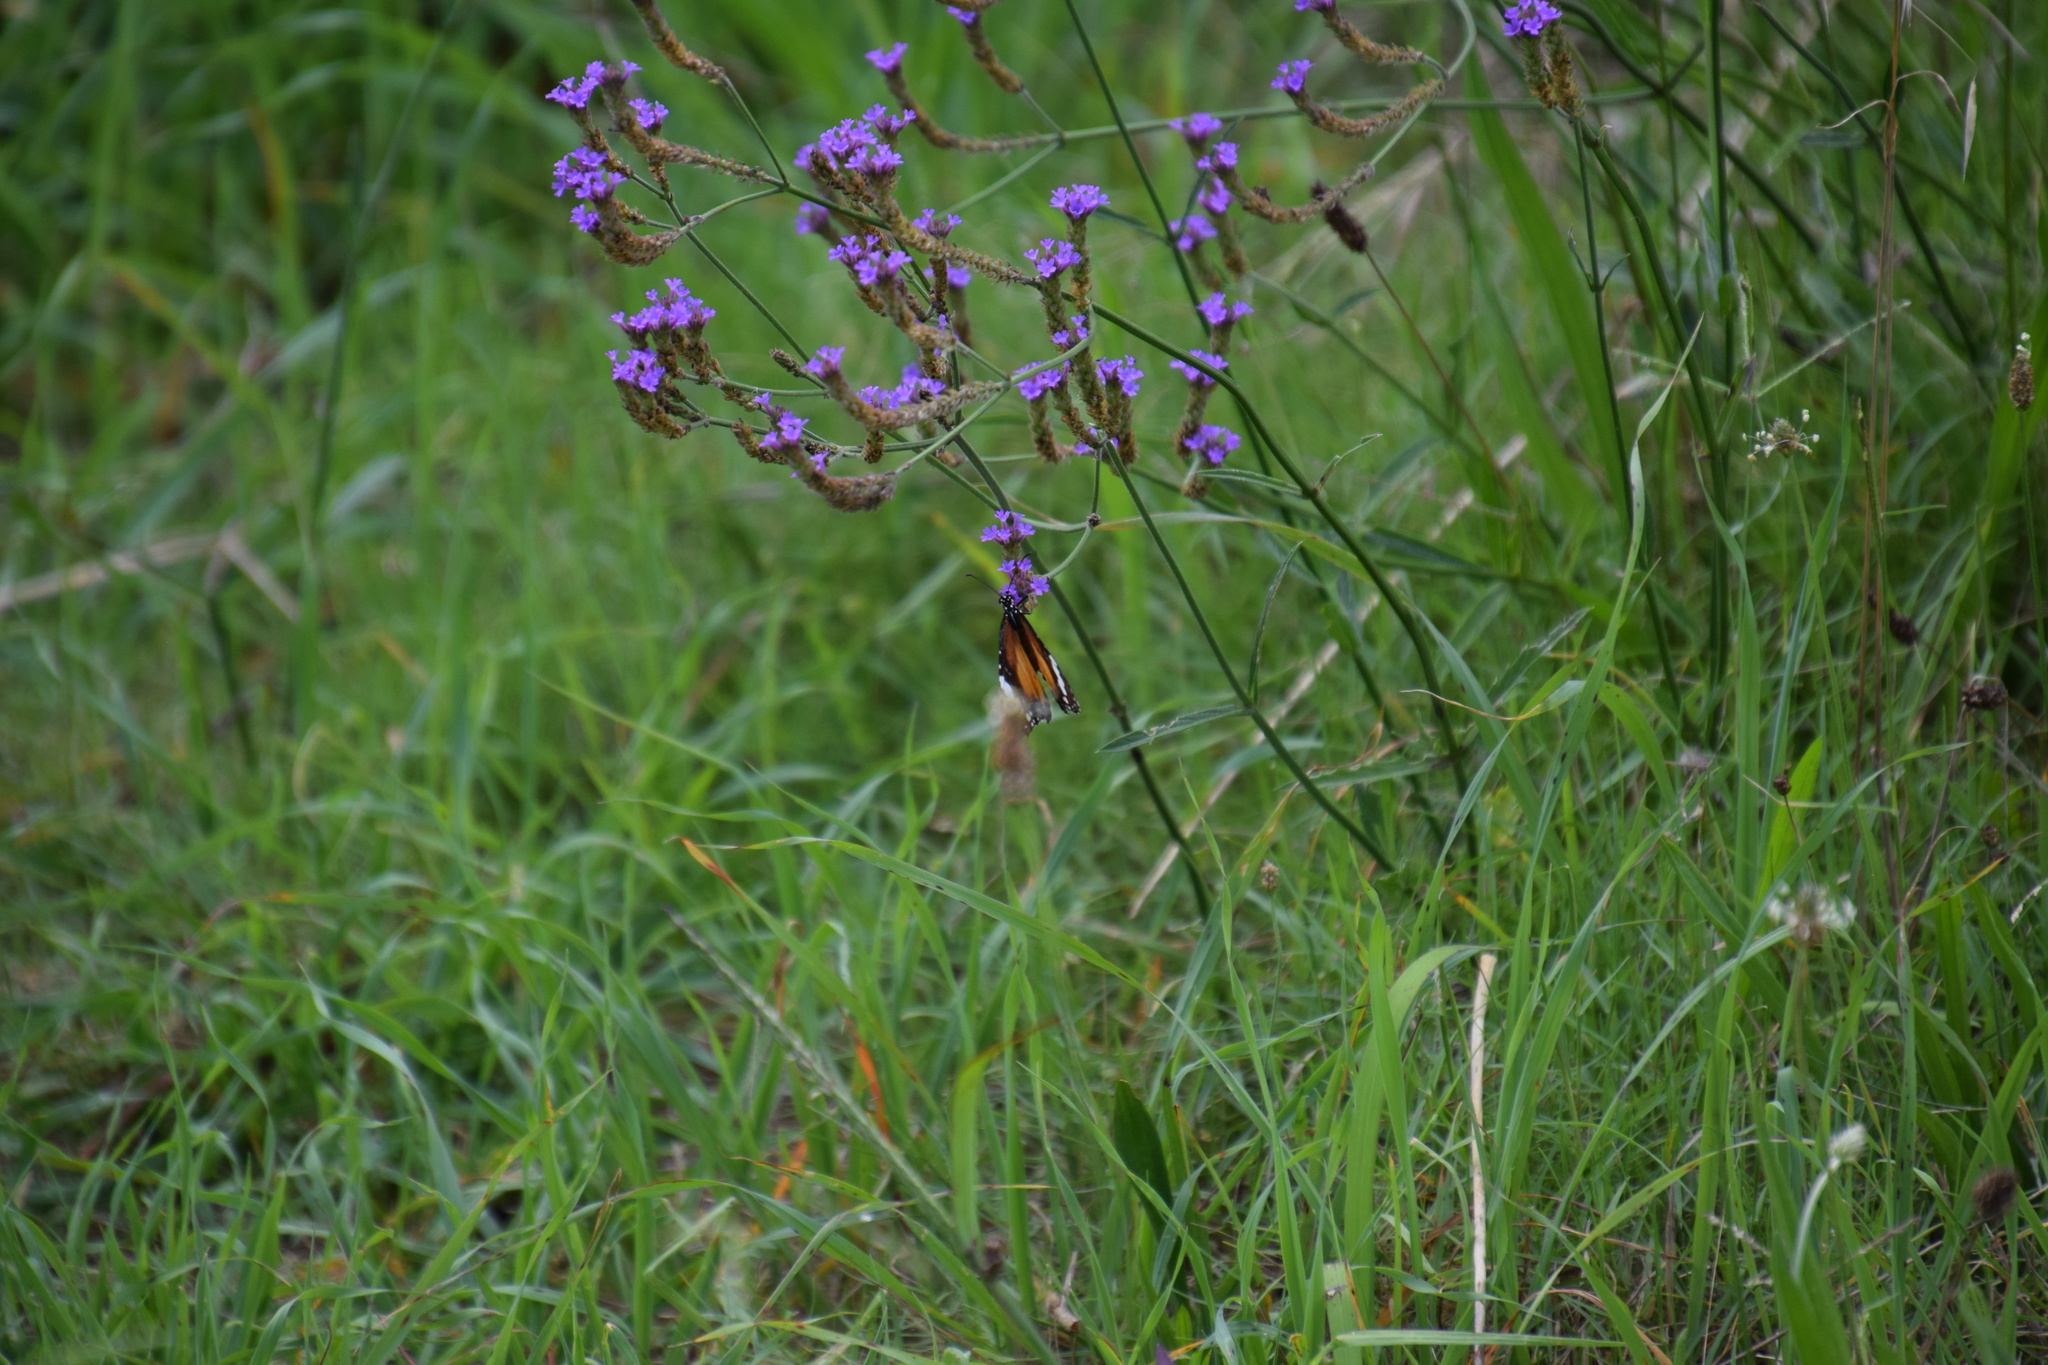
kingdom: Animalia
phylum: Arthropoda
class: Insecta
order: Lepidoptera
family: Nymphalidae
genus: Danaus
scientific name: Danaus chrysippus
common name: Plain tiger
